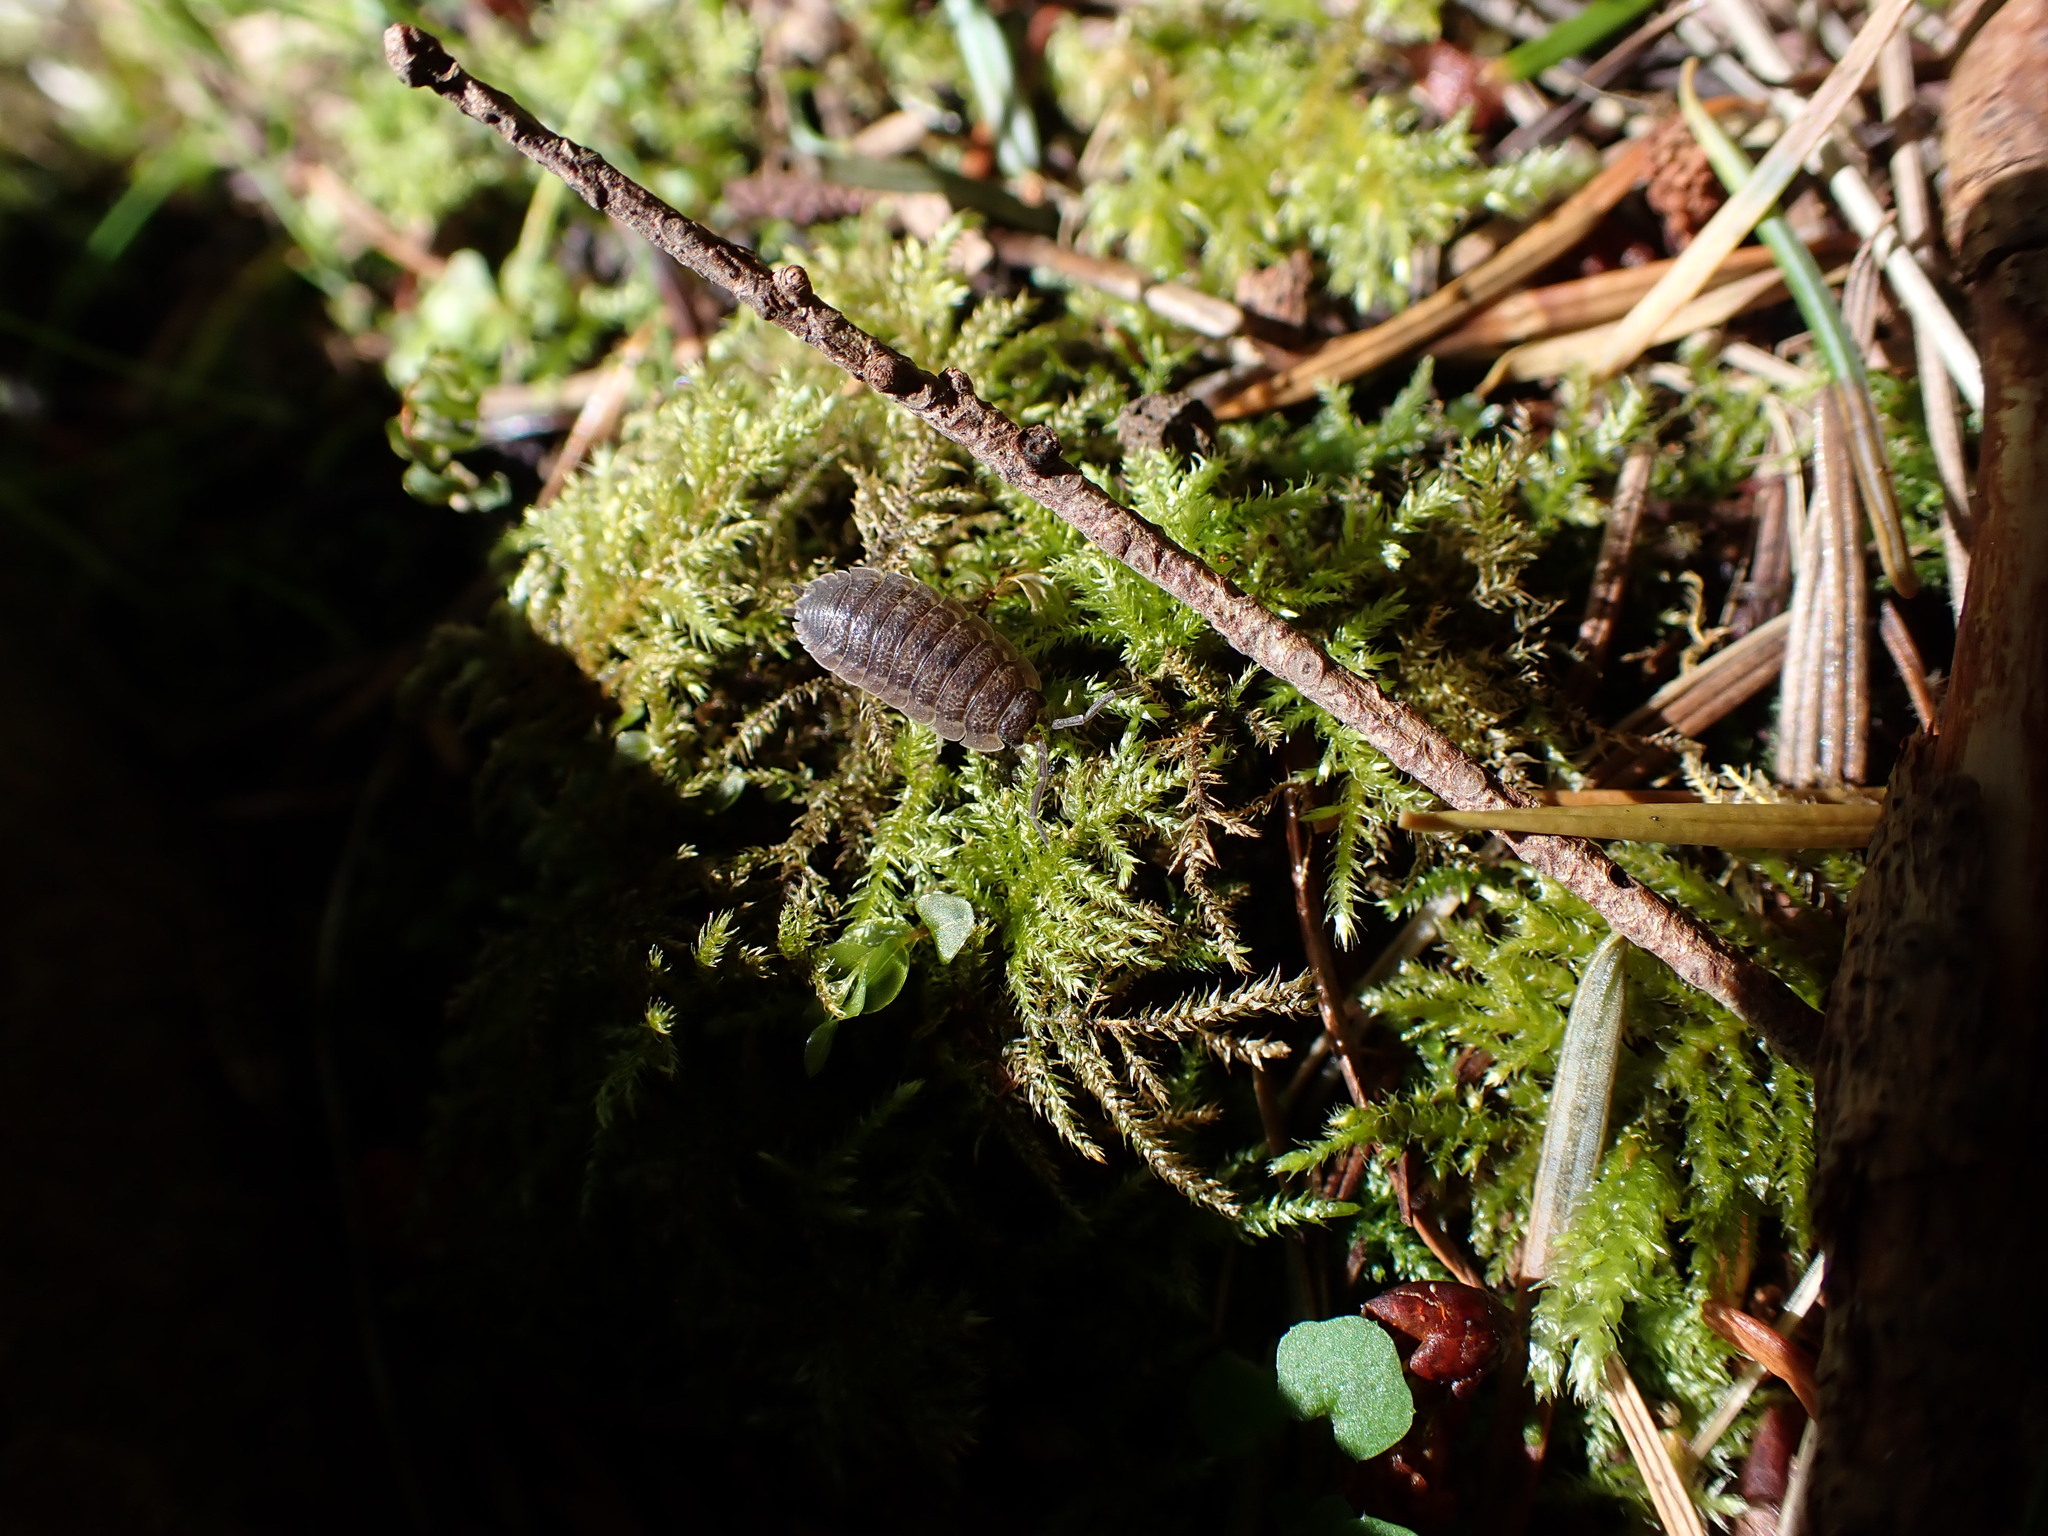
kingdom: Animalia
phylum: Arthropoda
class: Malacostraca
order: Isopoda
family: Porcellionidae
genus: Porcellio
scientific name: Porcellio scaber
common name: Common rough woodlouse
